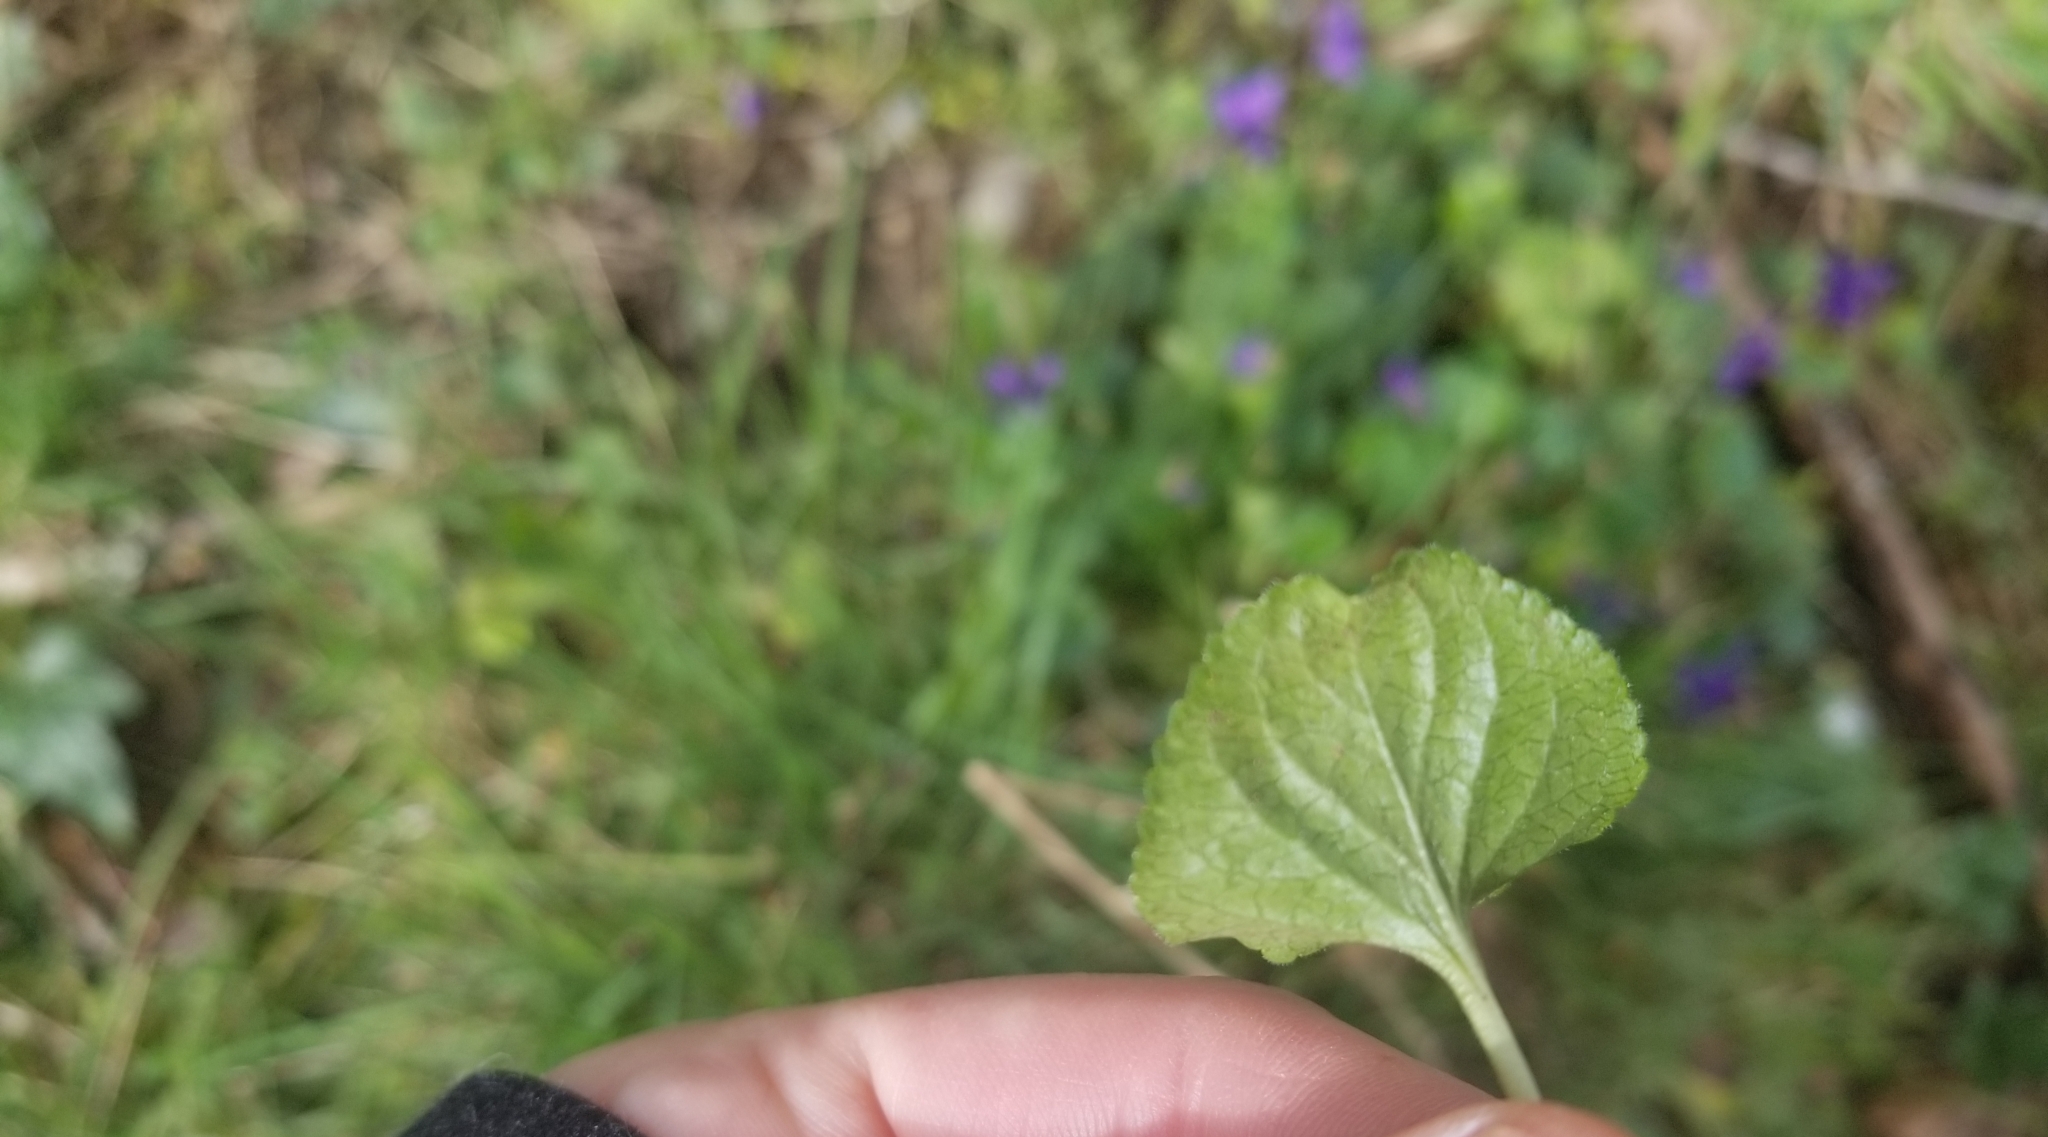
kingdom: Plantae
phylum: Tracheophyta
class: Magnoliopsida
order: Malpighiales
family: Violaceae
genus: Viola
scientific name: Viola odorata
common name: Sweet violet
